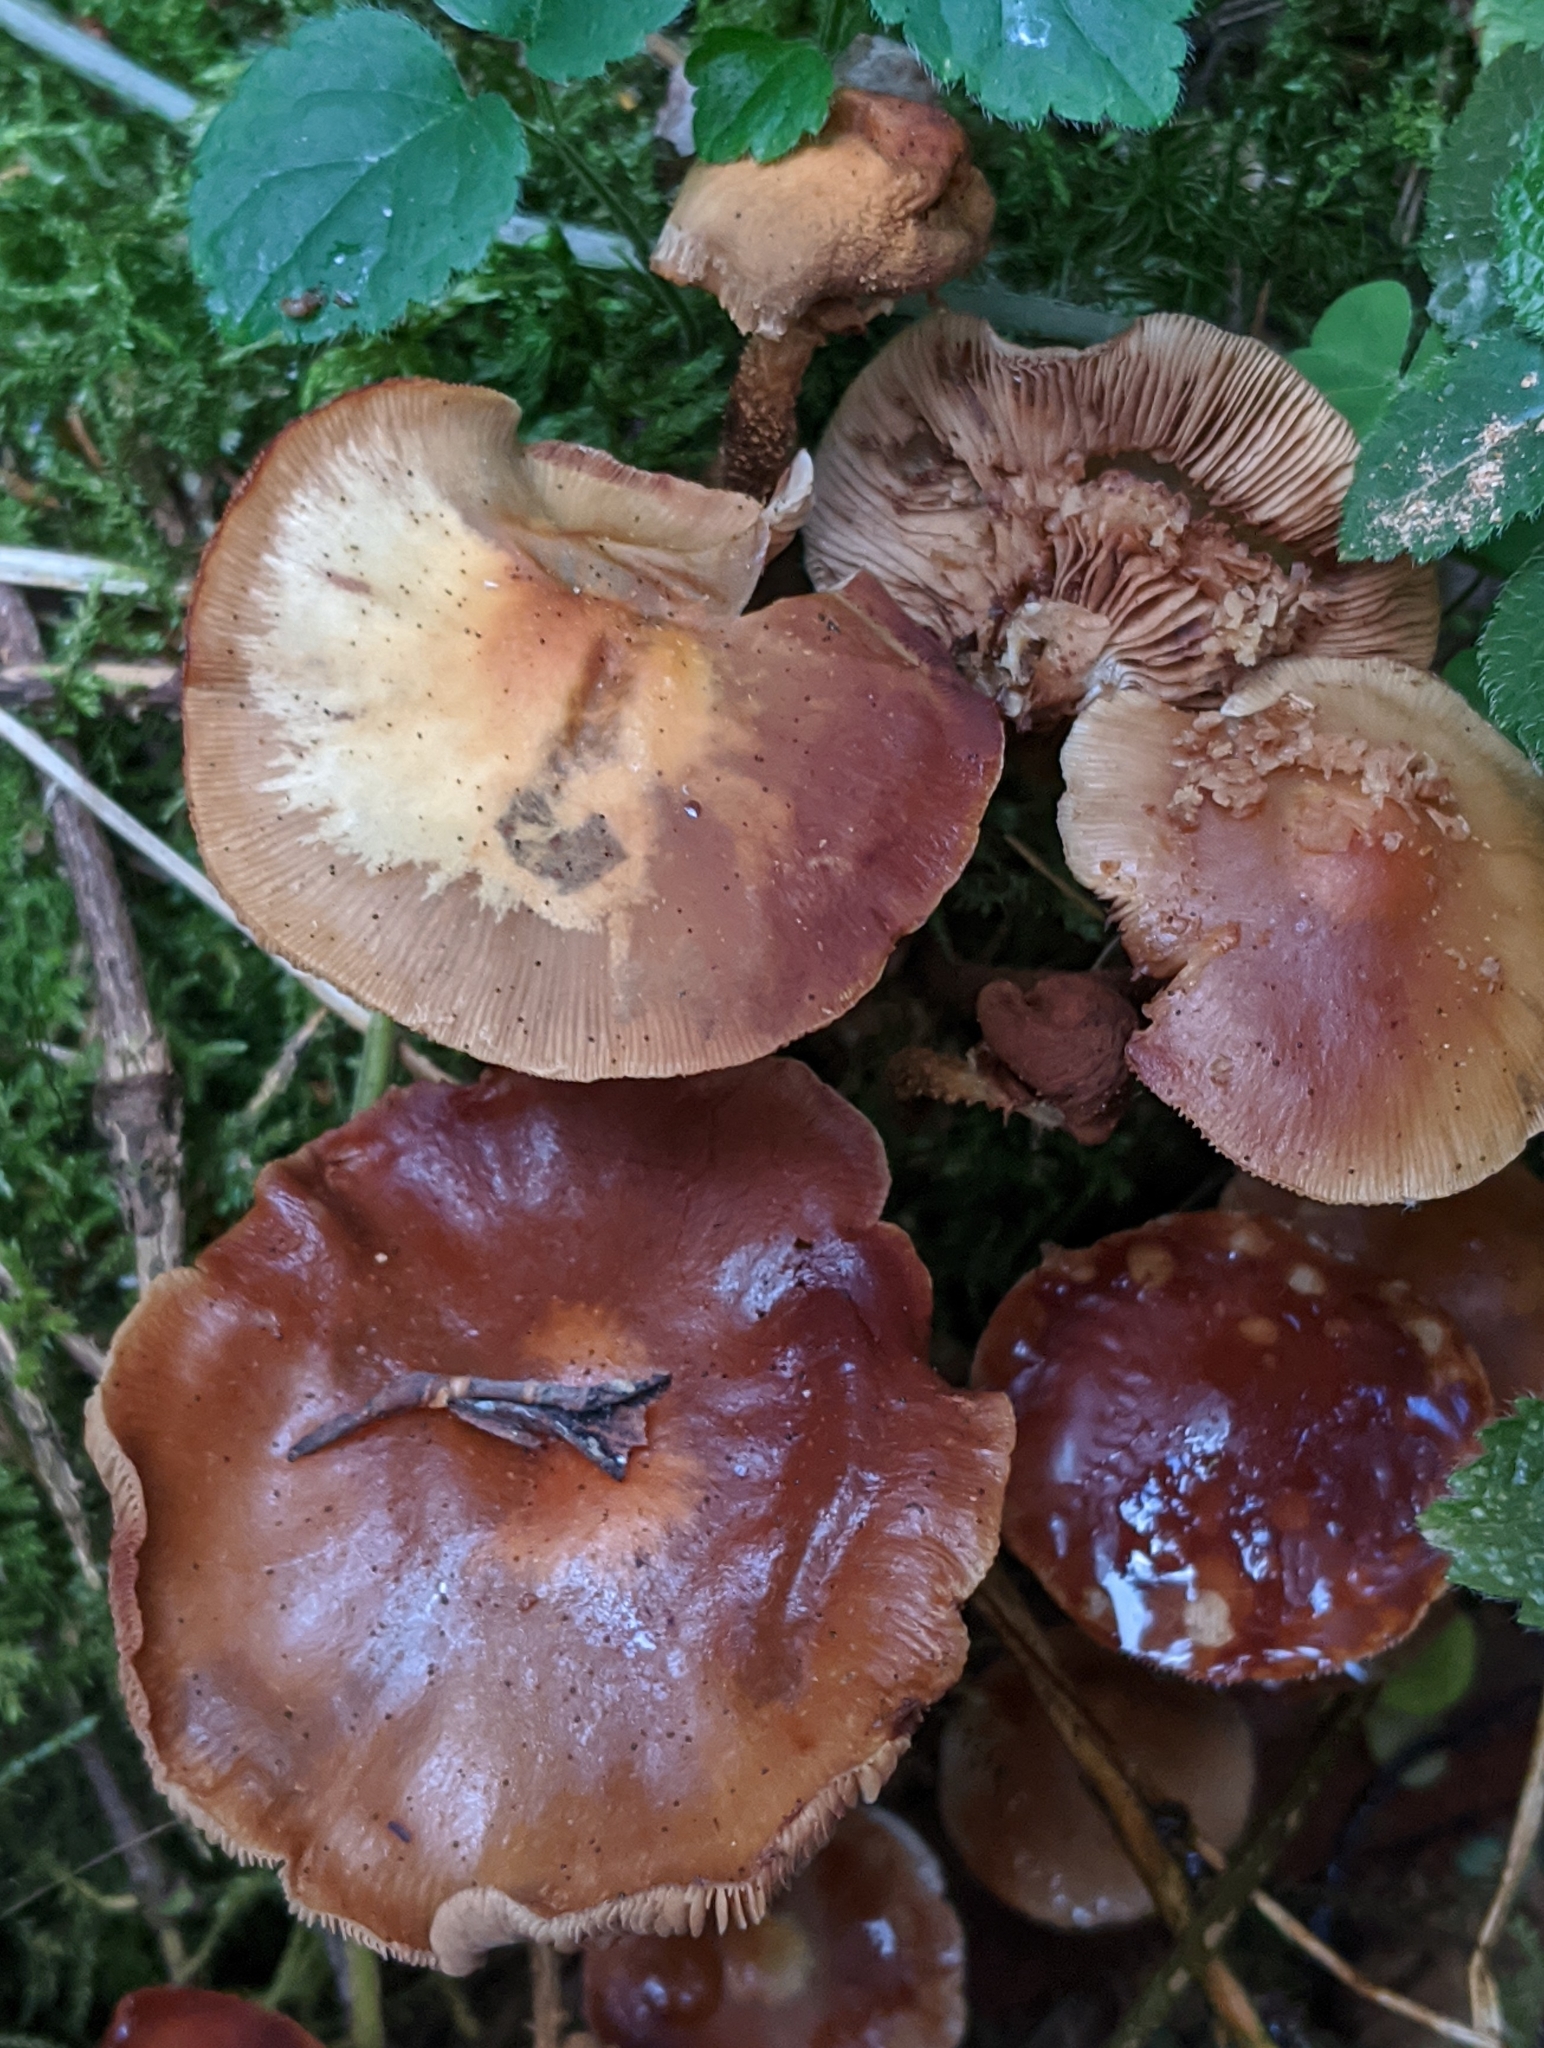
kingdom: Fungi
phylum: Basidiomycota
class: Agaricomycetes
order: Agaricales
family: Strophariaceae
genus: Kuehneromyces
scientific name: Kuehneromyces mutabilis
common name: Sheathed woodtuft
